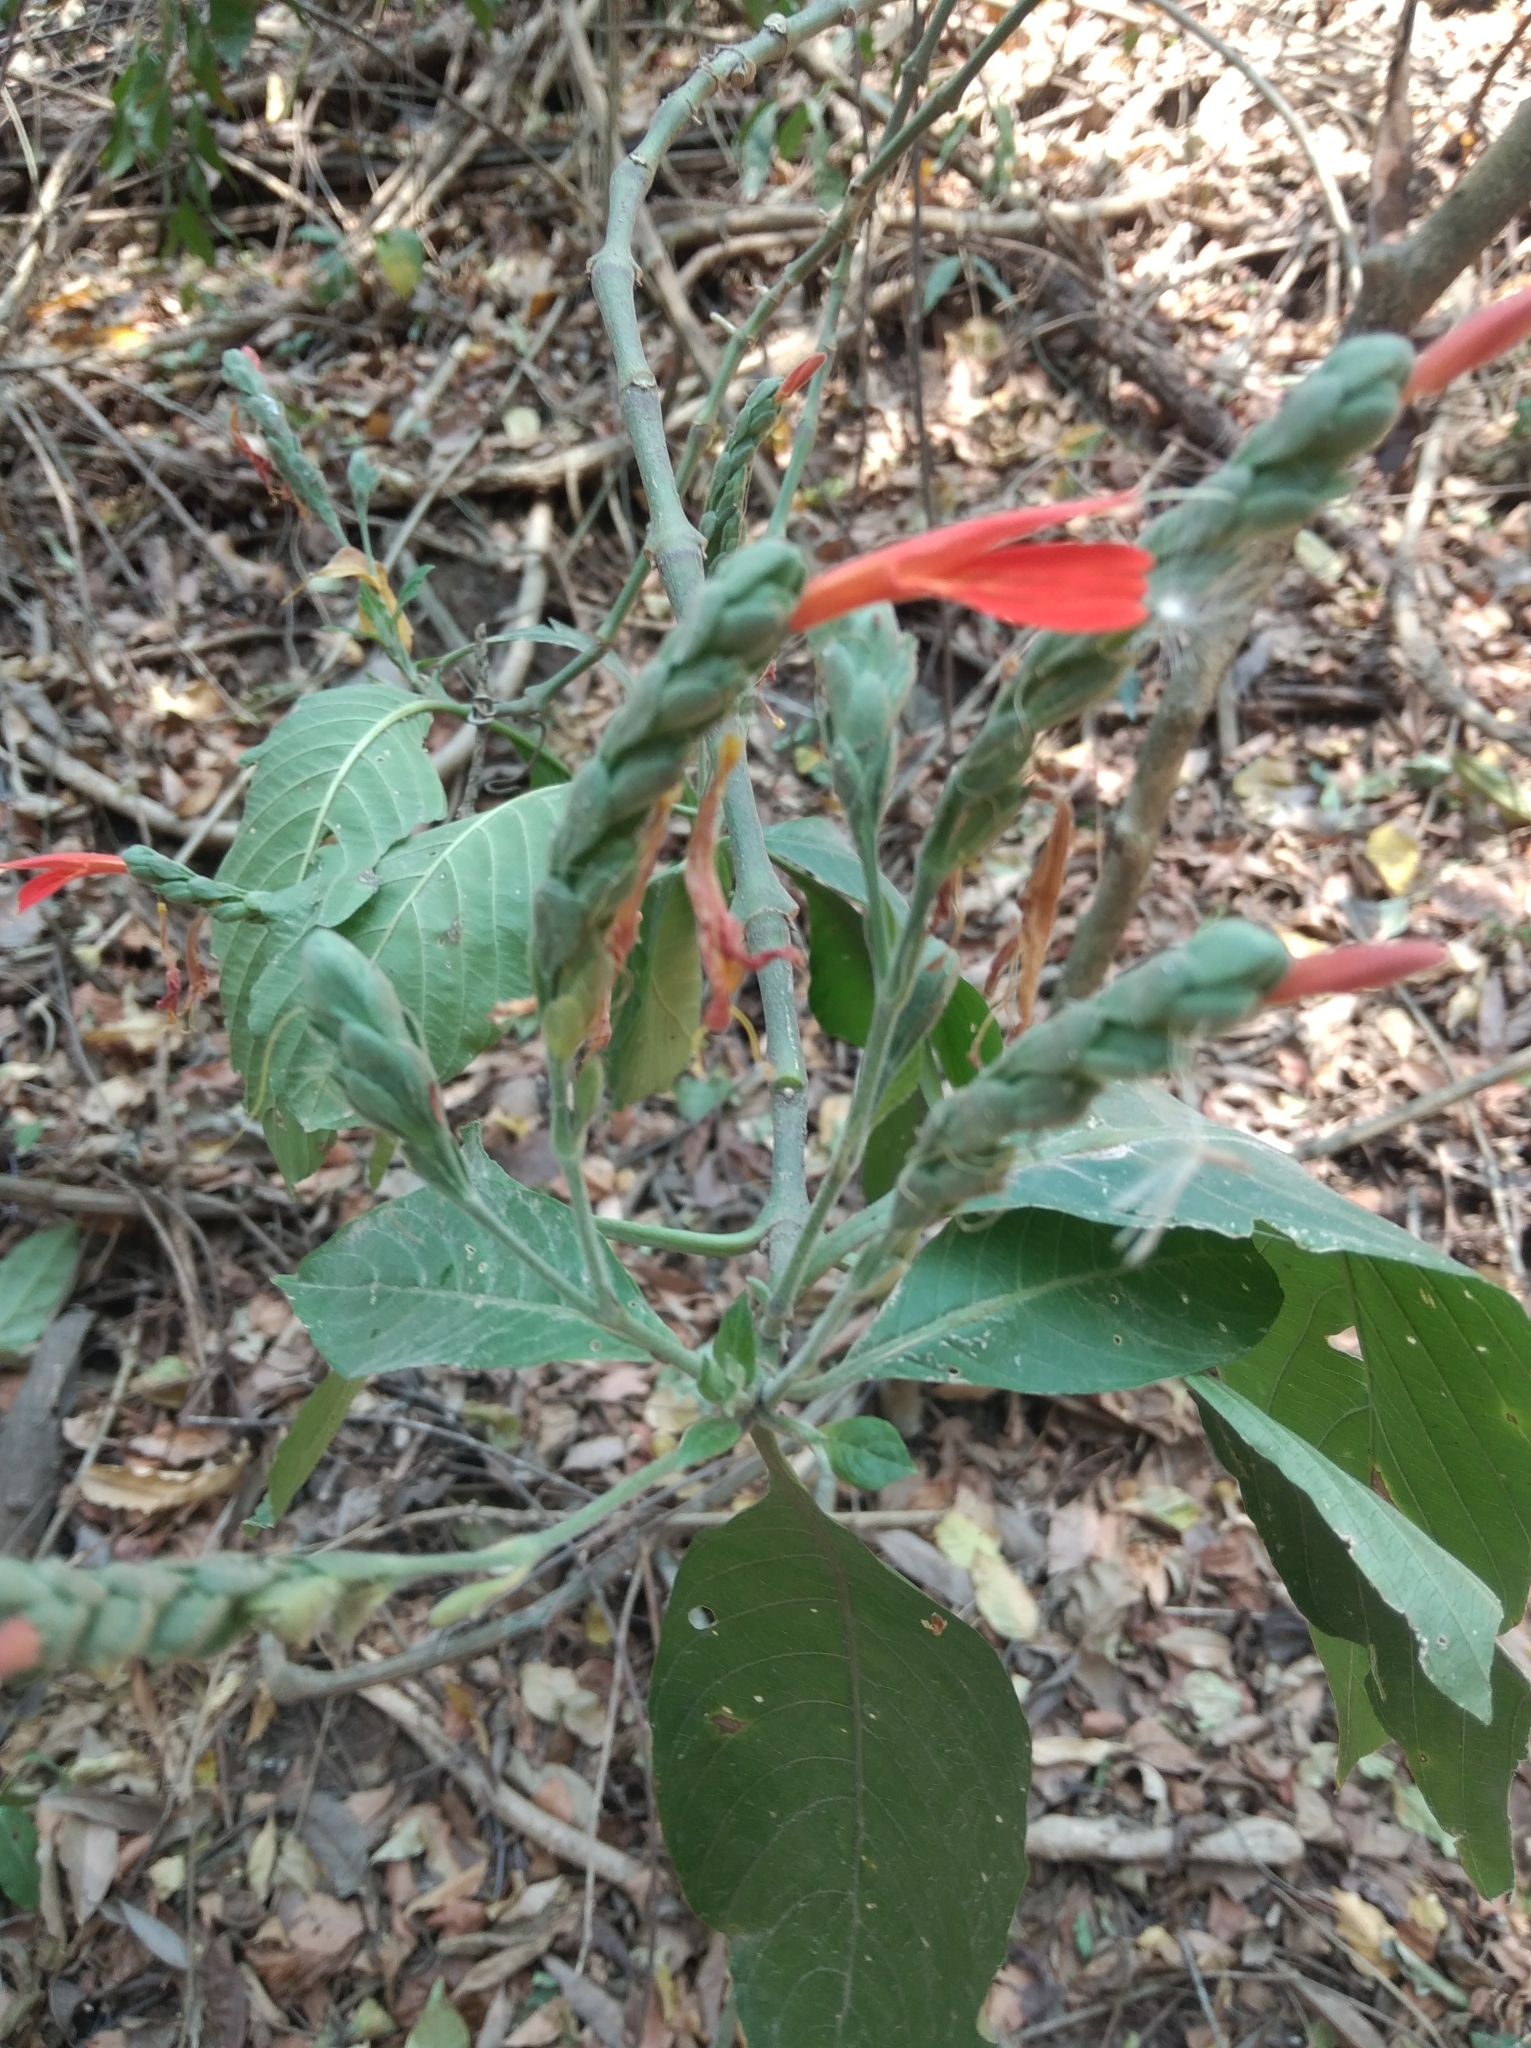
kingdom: Plantae
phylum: Tracheophyta
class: Magnoliopsida
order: Lamiales
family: Acanthaceae
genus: Justicia
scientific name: Justicia oranensis
